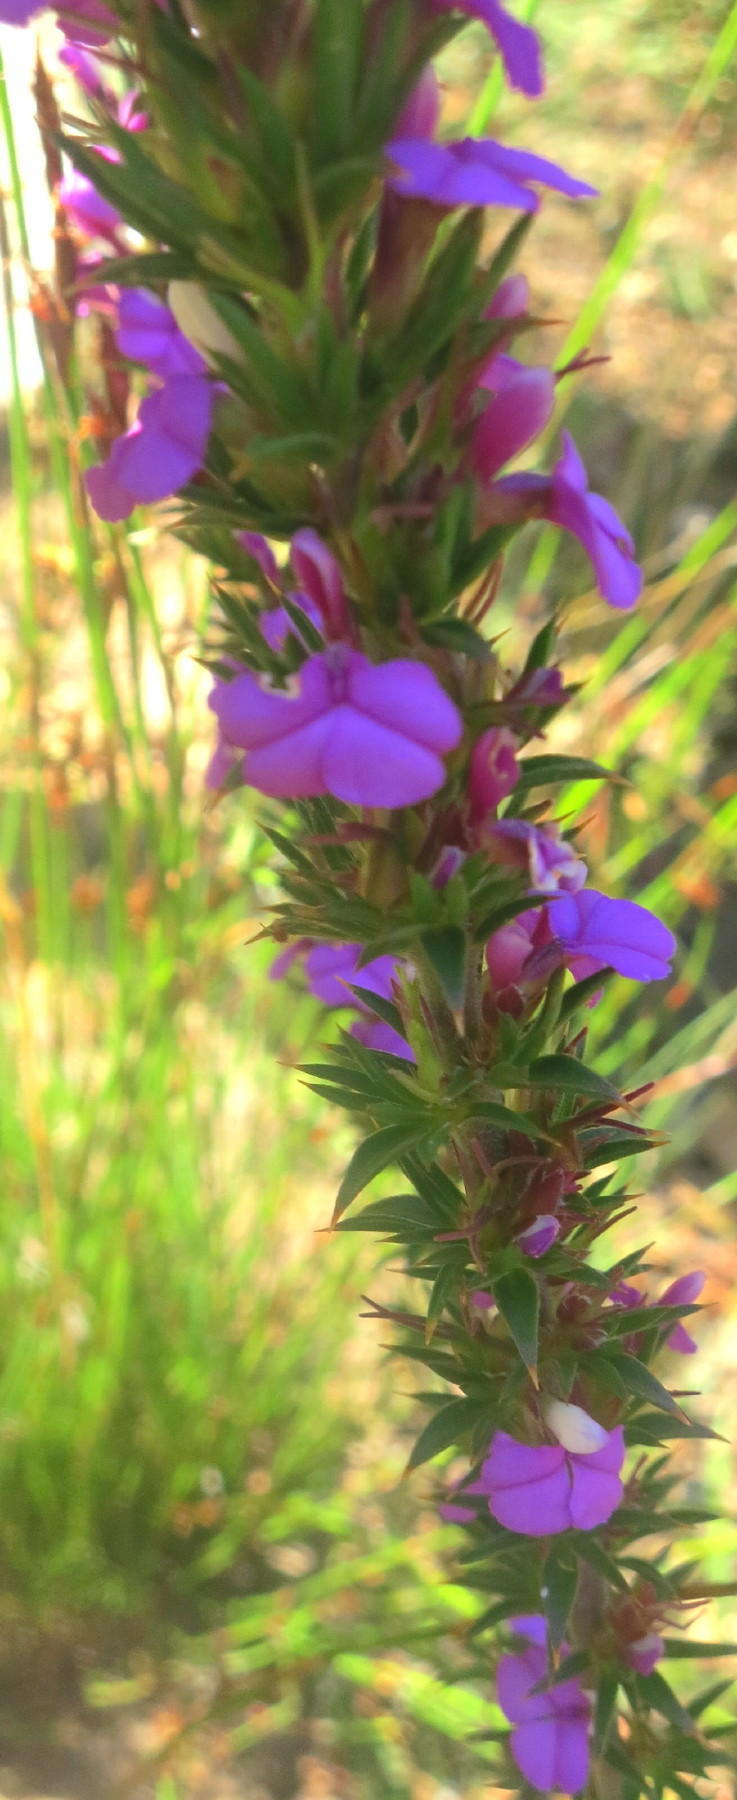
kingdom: Plantae
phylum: Tracheophyta
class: Magnoliopsida
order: Fabales
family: Polygalaceae
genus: Muraltia
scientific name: Muraltia heisteria
